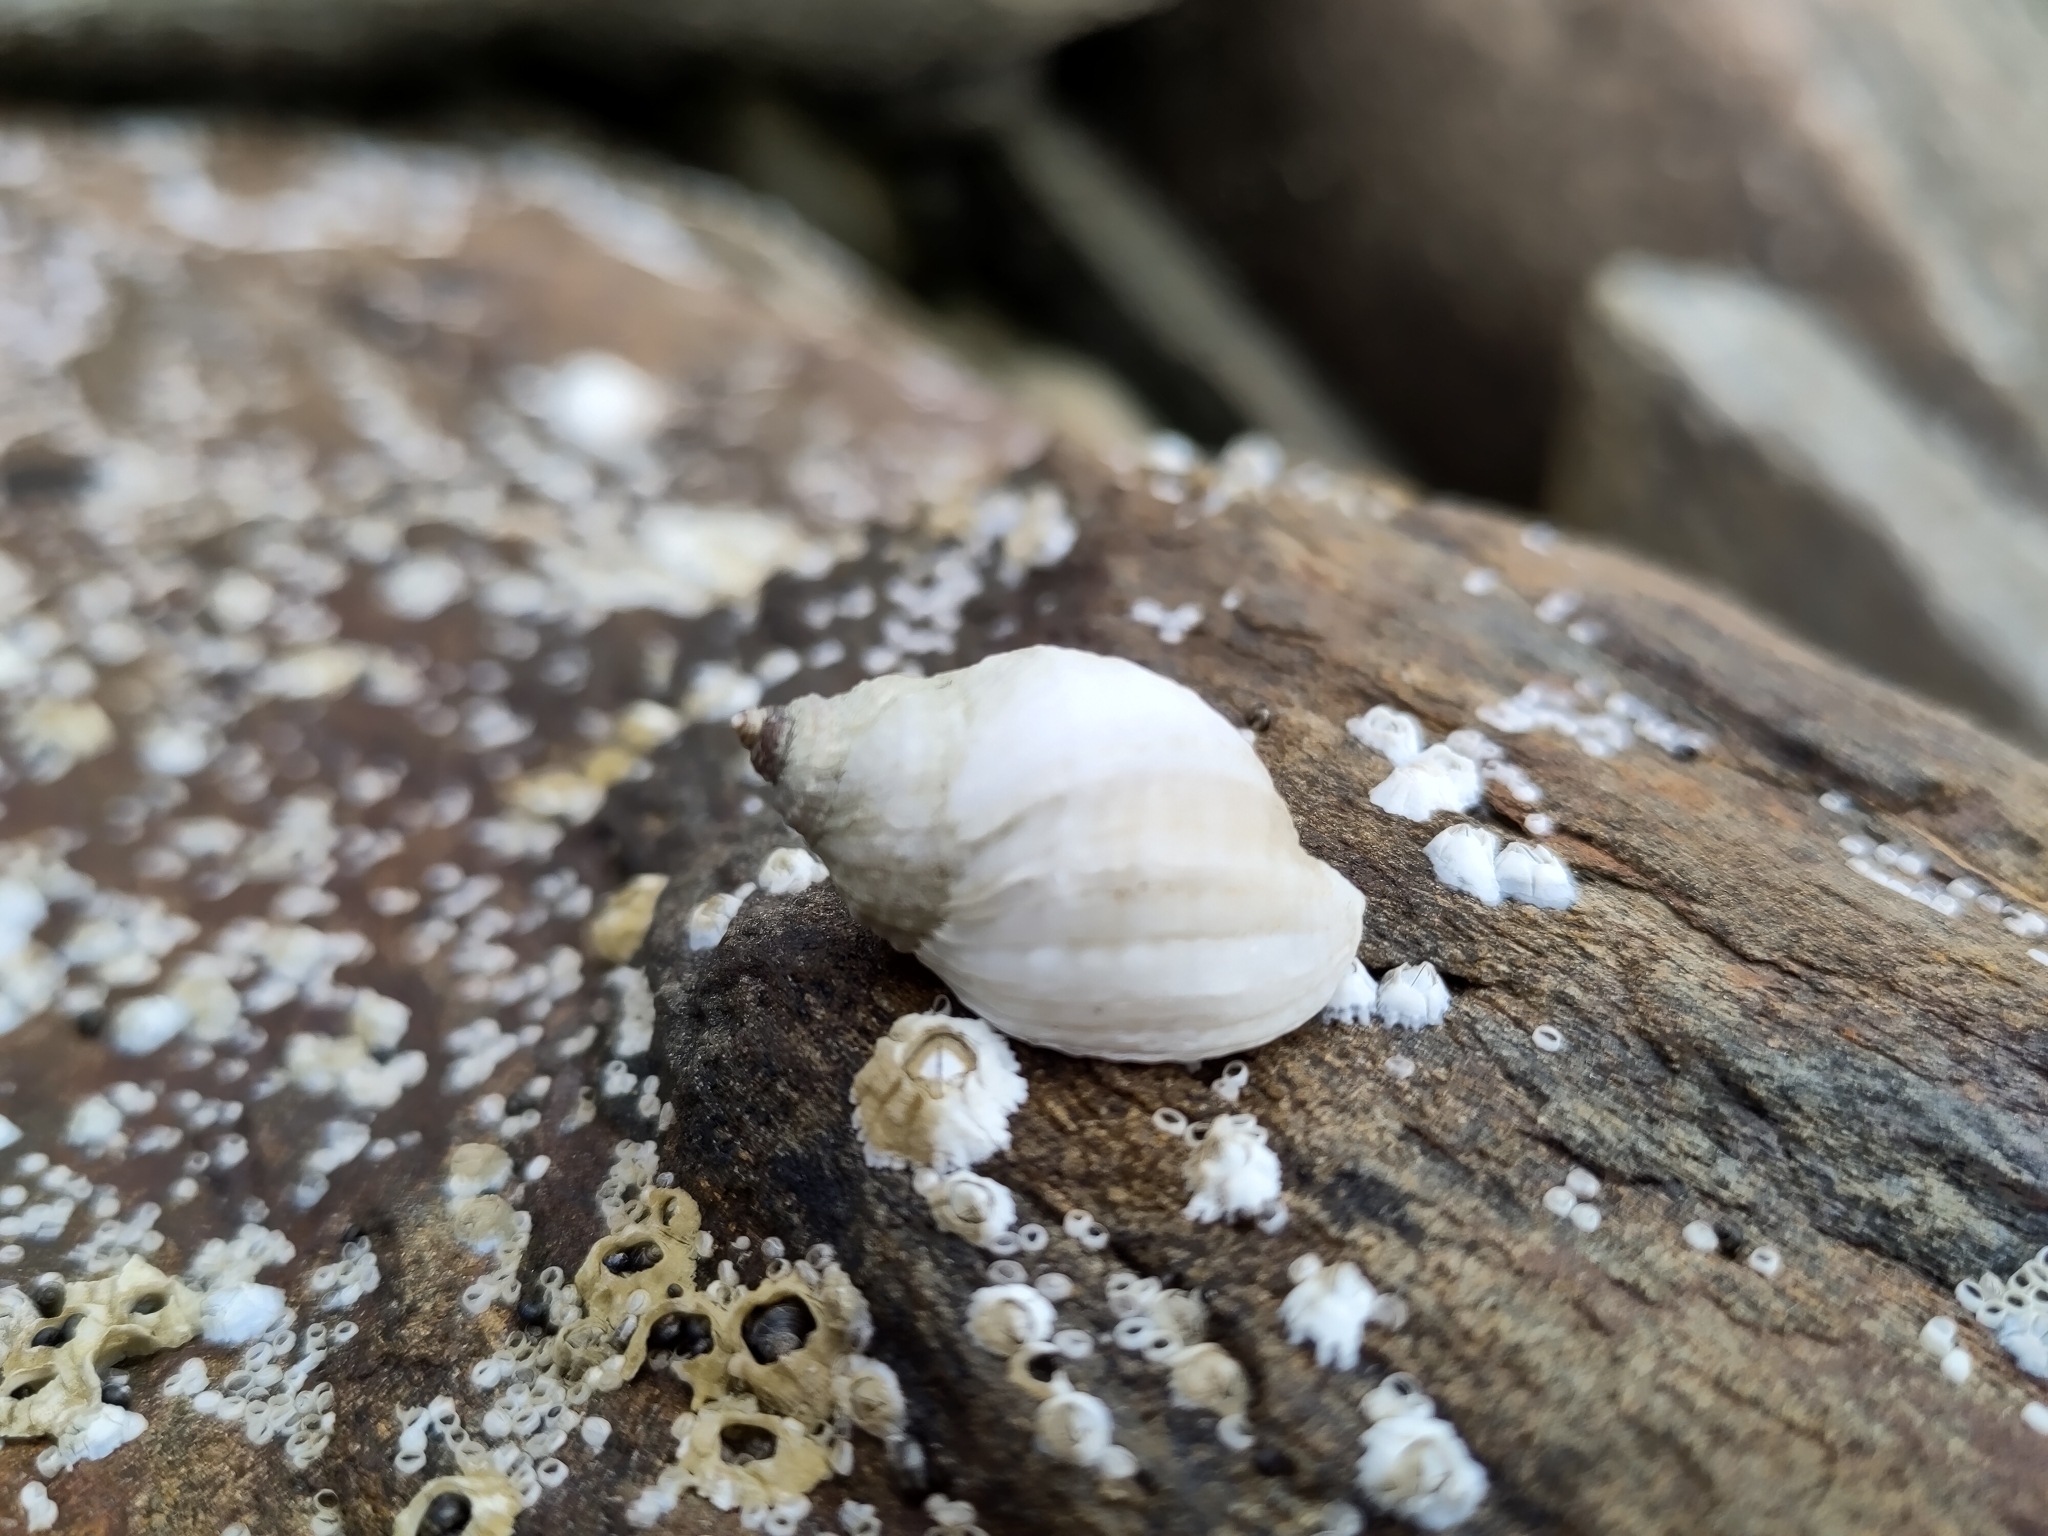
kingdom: Animalia
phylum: Mollusca
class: Gastropoda
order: Neogastropoda
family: Muricidae
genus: Nucella
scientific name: Nucella lapillus
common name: Dog whelk
